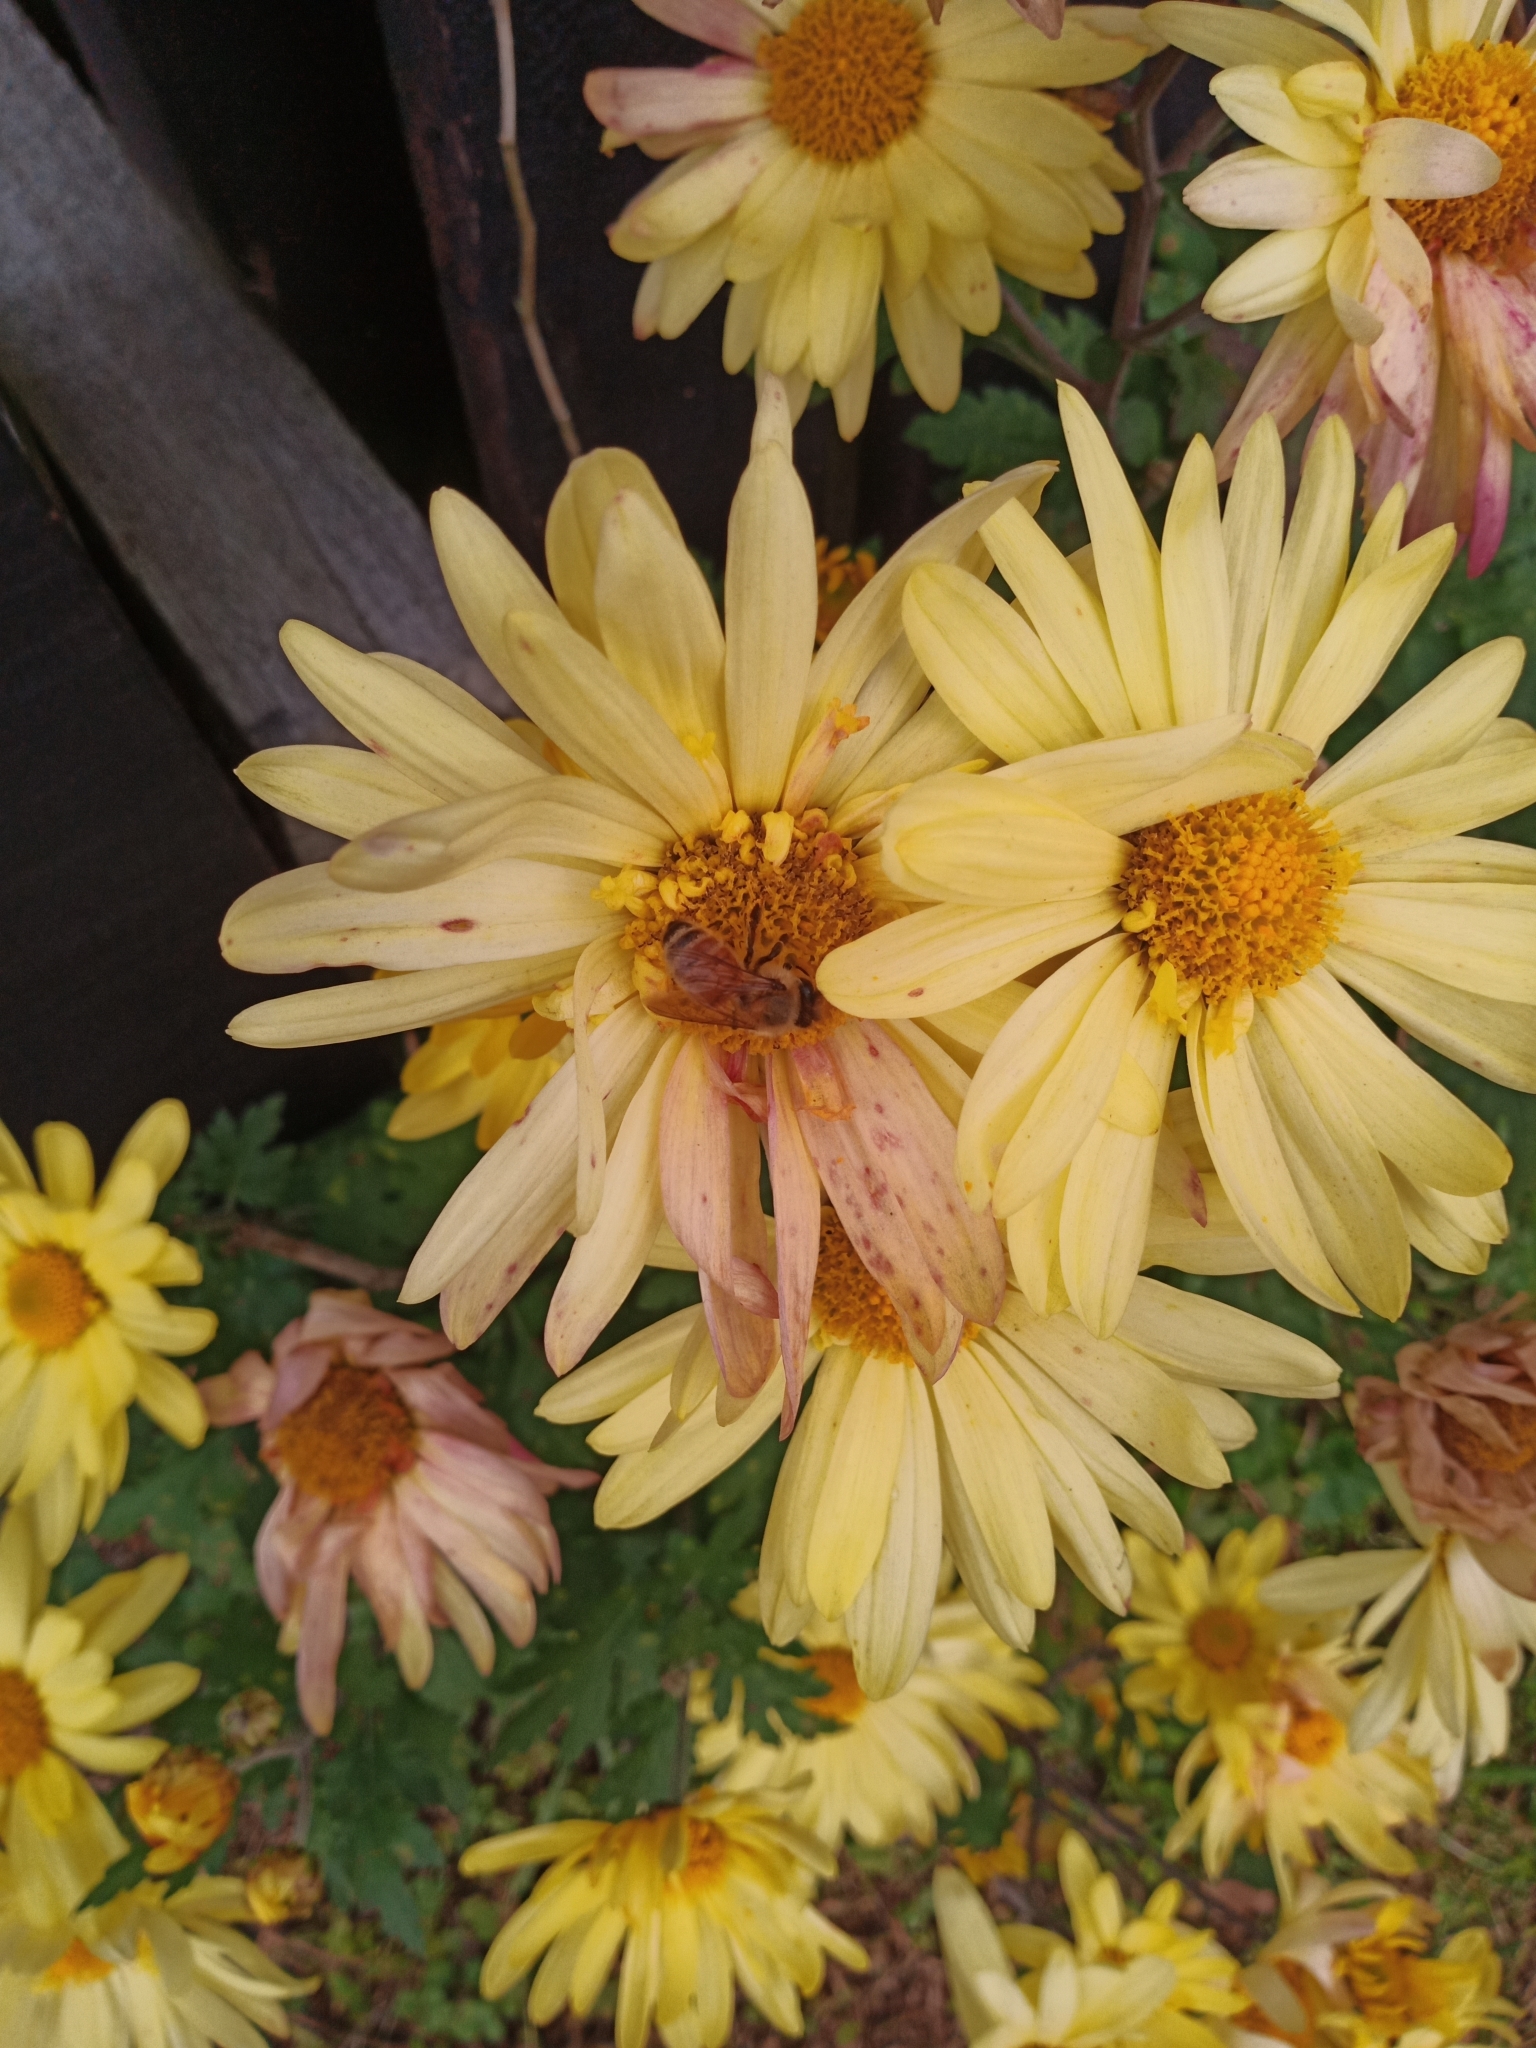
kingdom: Animalia
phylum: Arthropoda
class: Insecta
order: Hymenoptera
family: Apidae
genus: Apis
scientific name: Apis mellifera
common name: Honey bee
